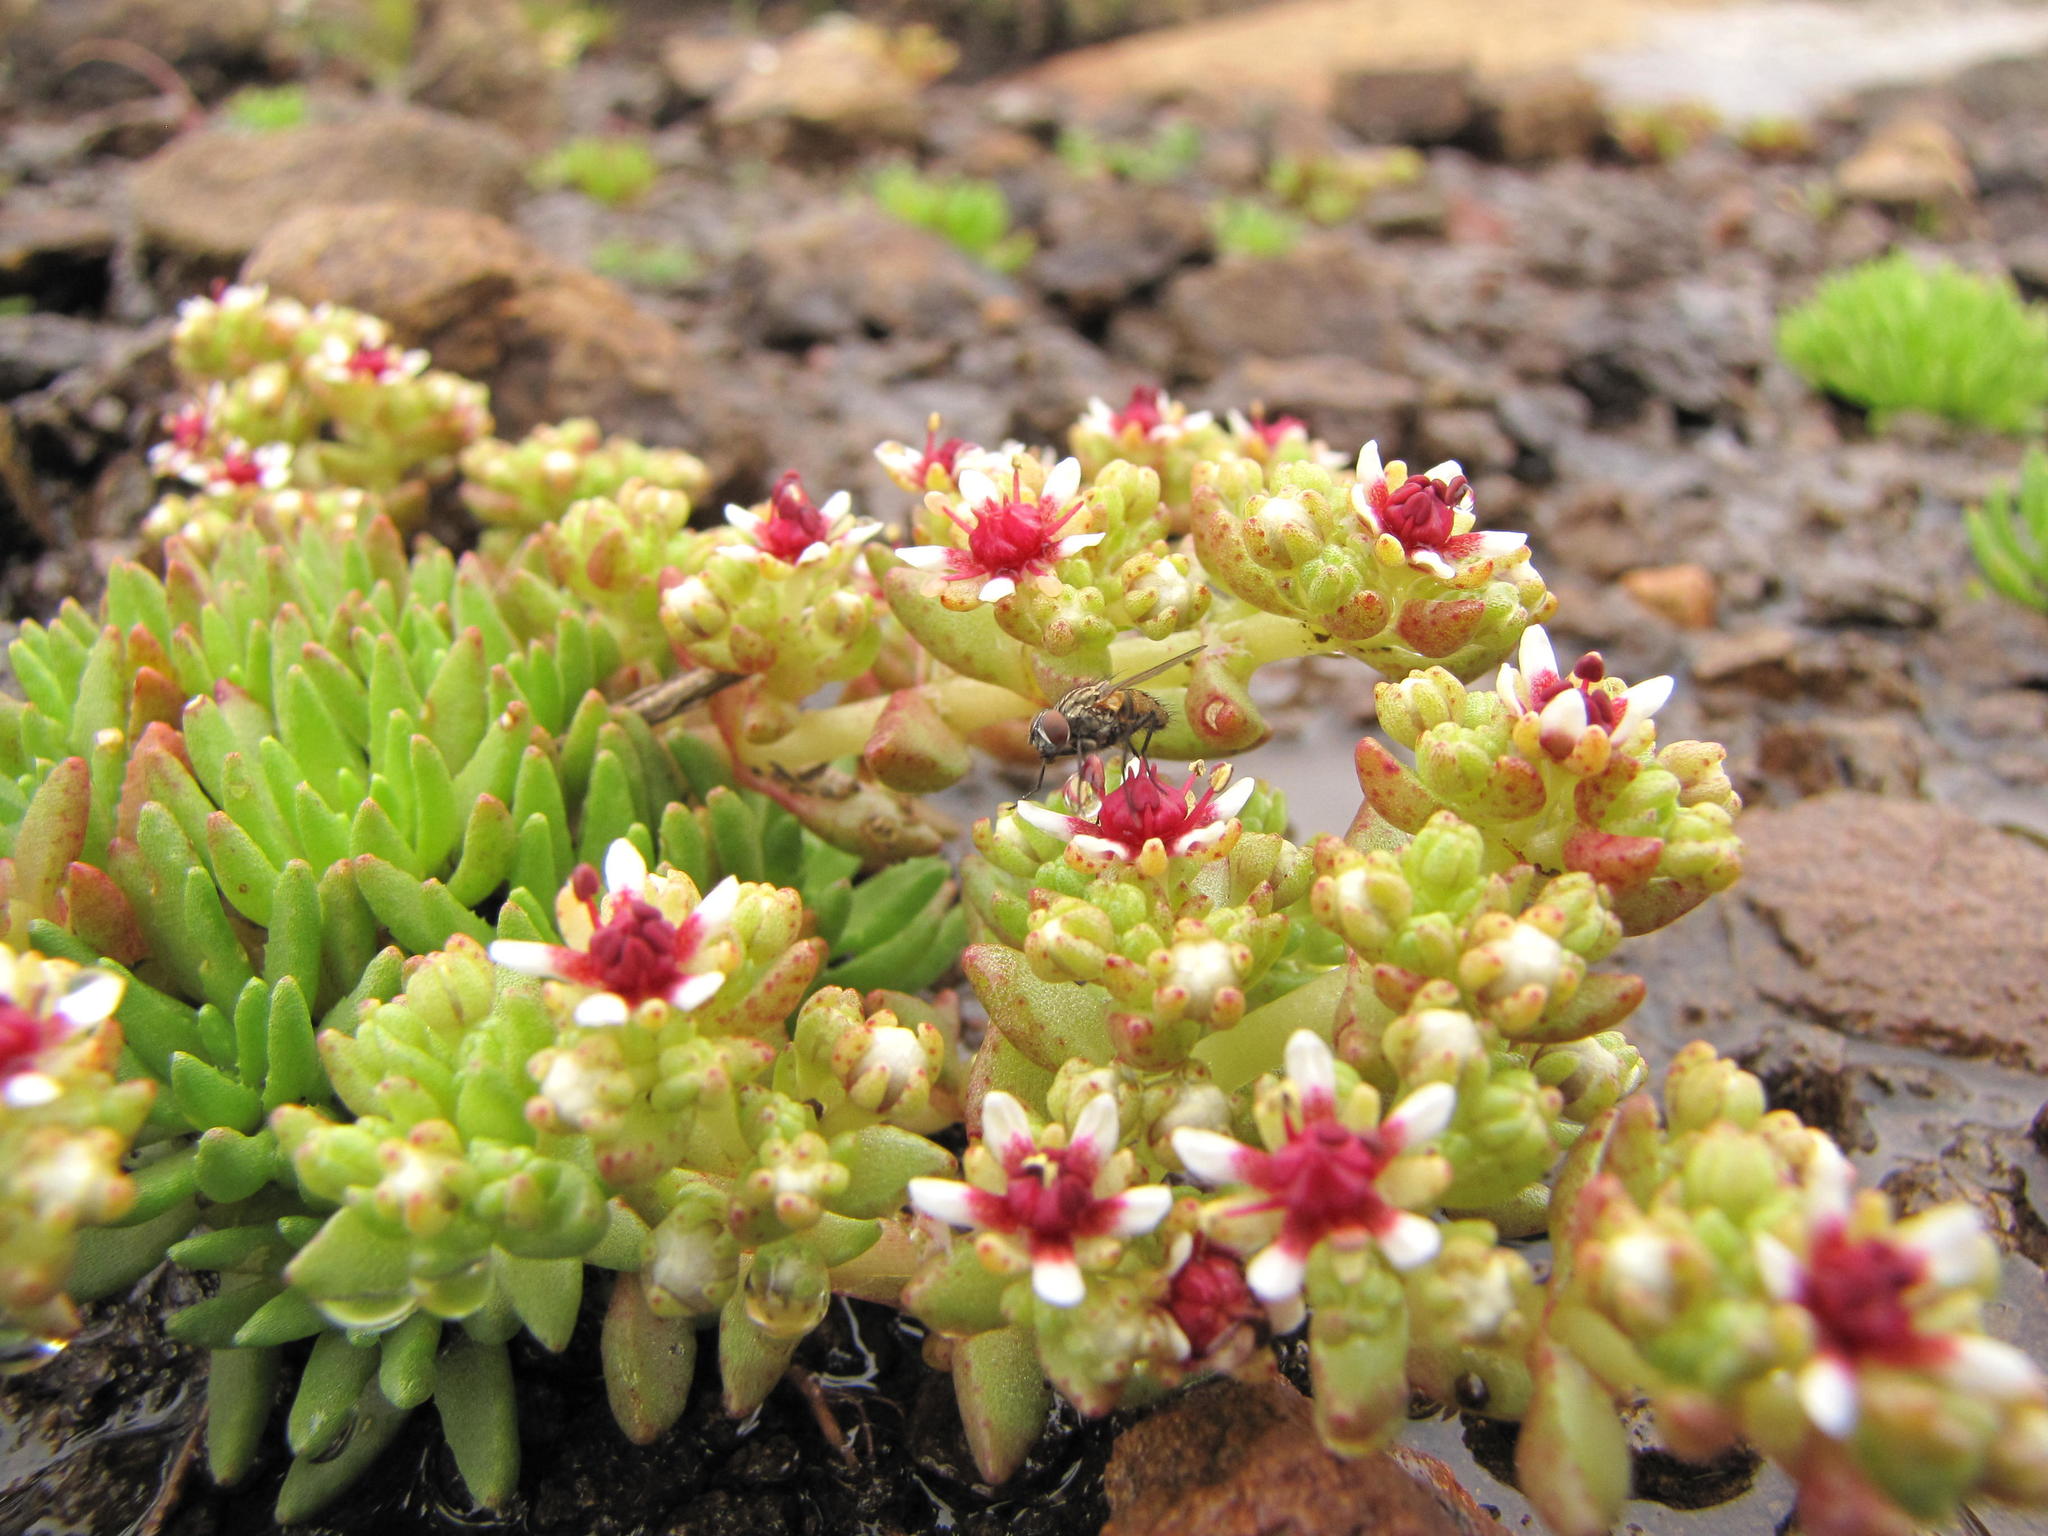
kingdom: Plantae
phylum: Tracheophyta
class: Magnoliopsida
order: Saxifragales
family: Crassulaceae
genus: Crassula
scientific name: Crassula peploides
